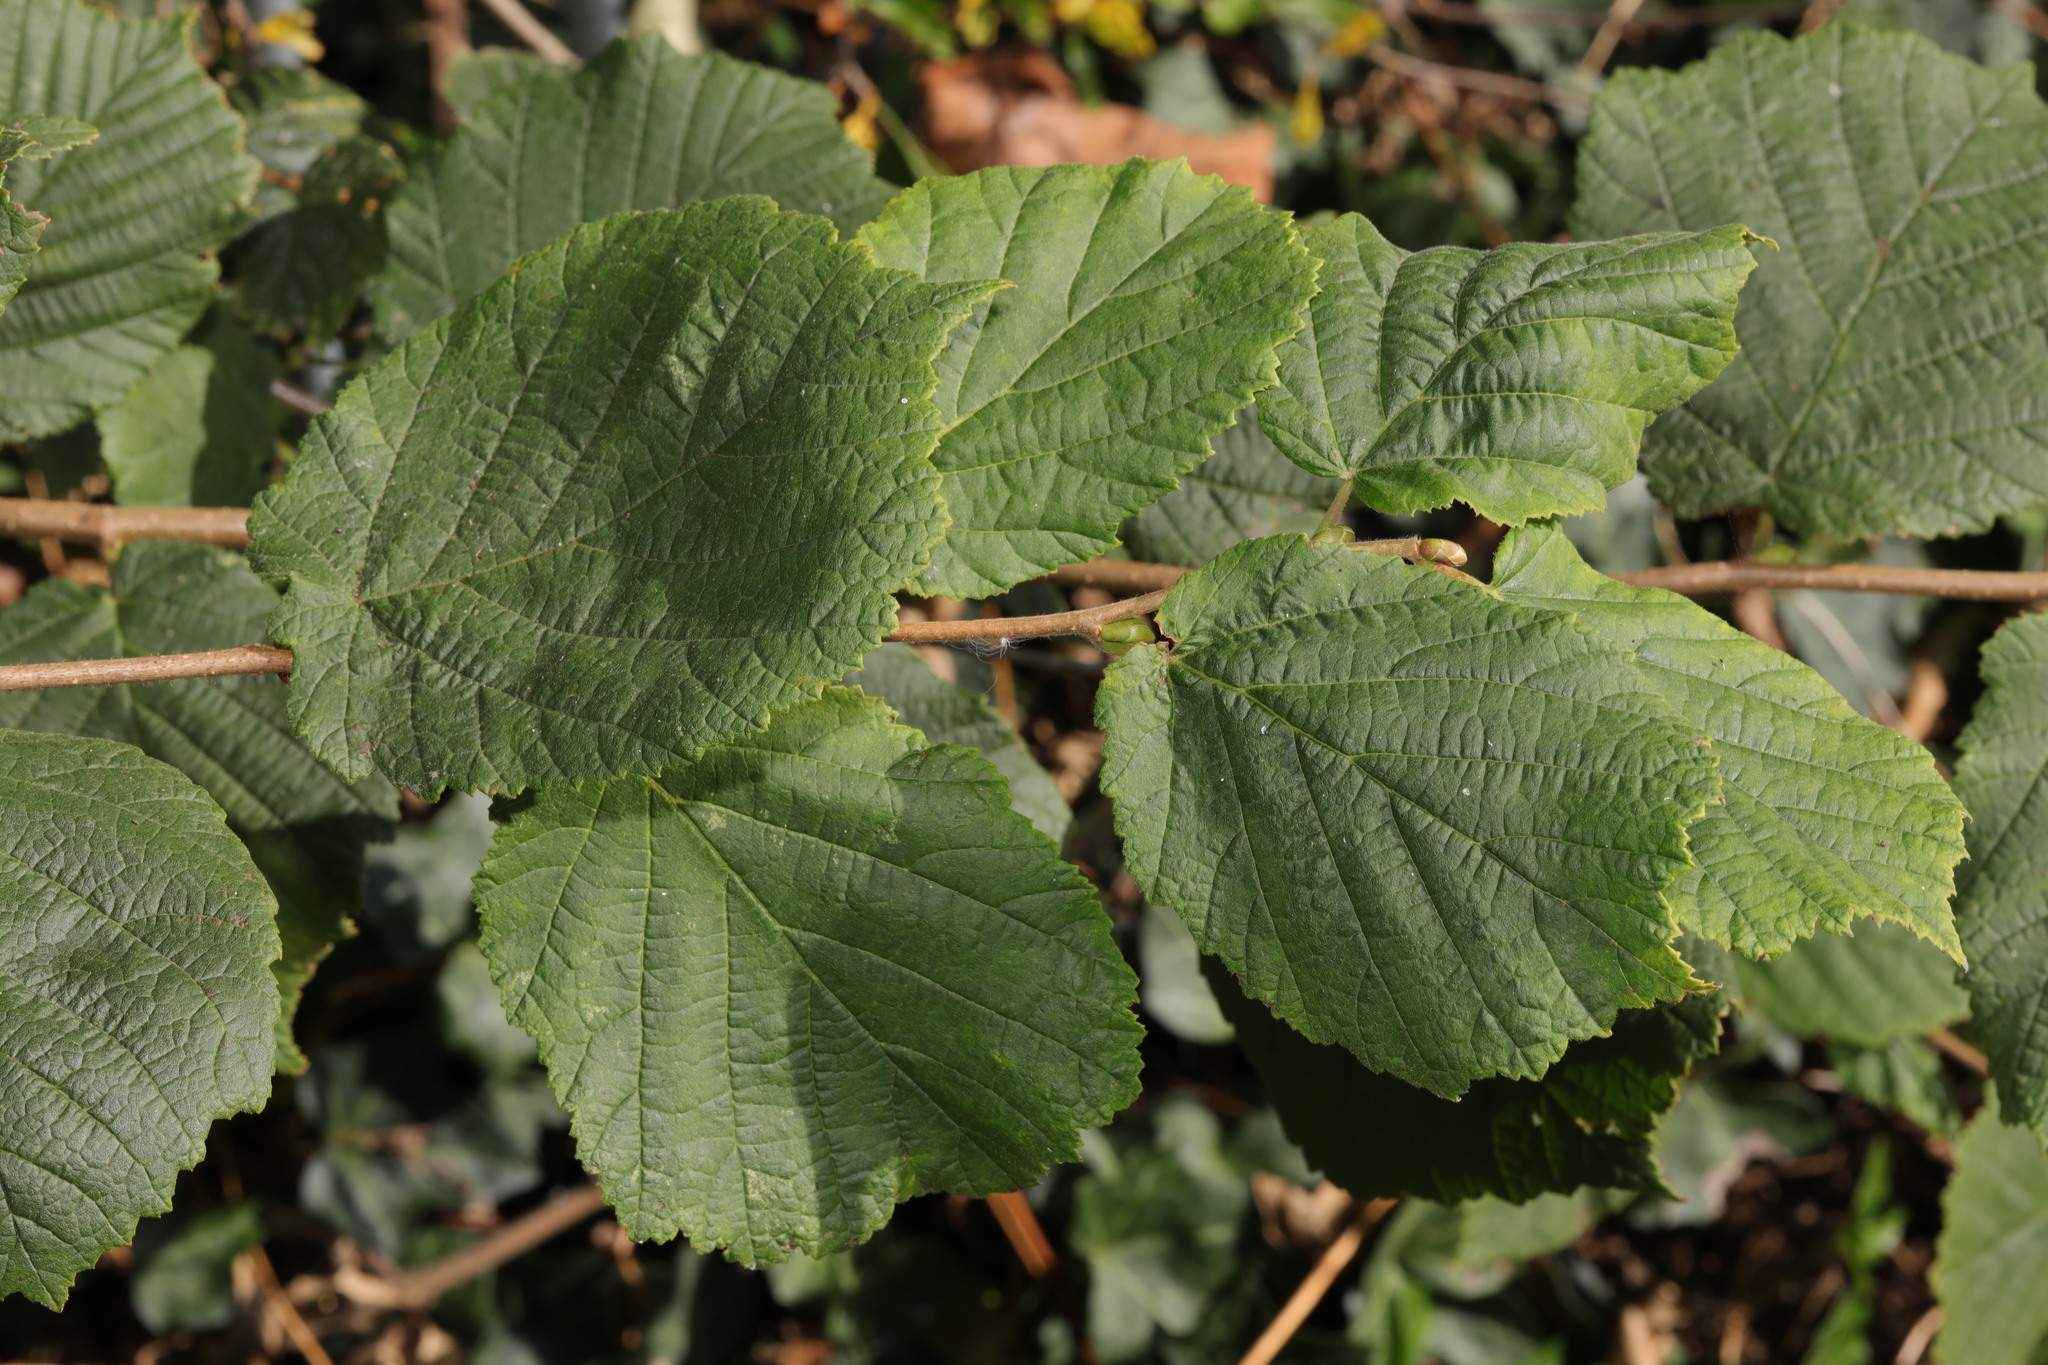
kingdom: Plantae
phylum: Tracheophyta
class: Magnoliopsida
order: Fagales
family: Betulaceae
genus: Corylus
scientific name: Corylus avellana
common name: European hazel
